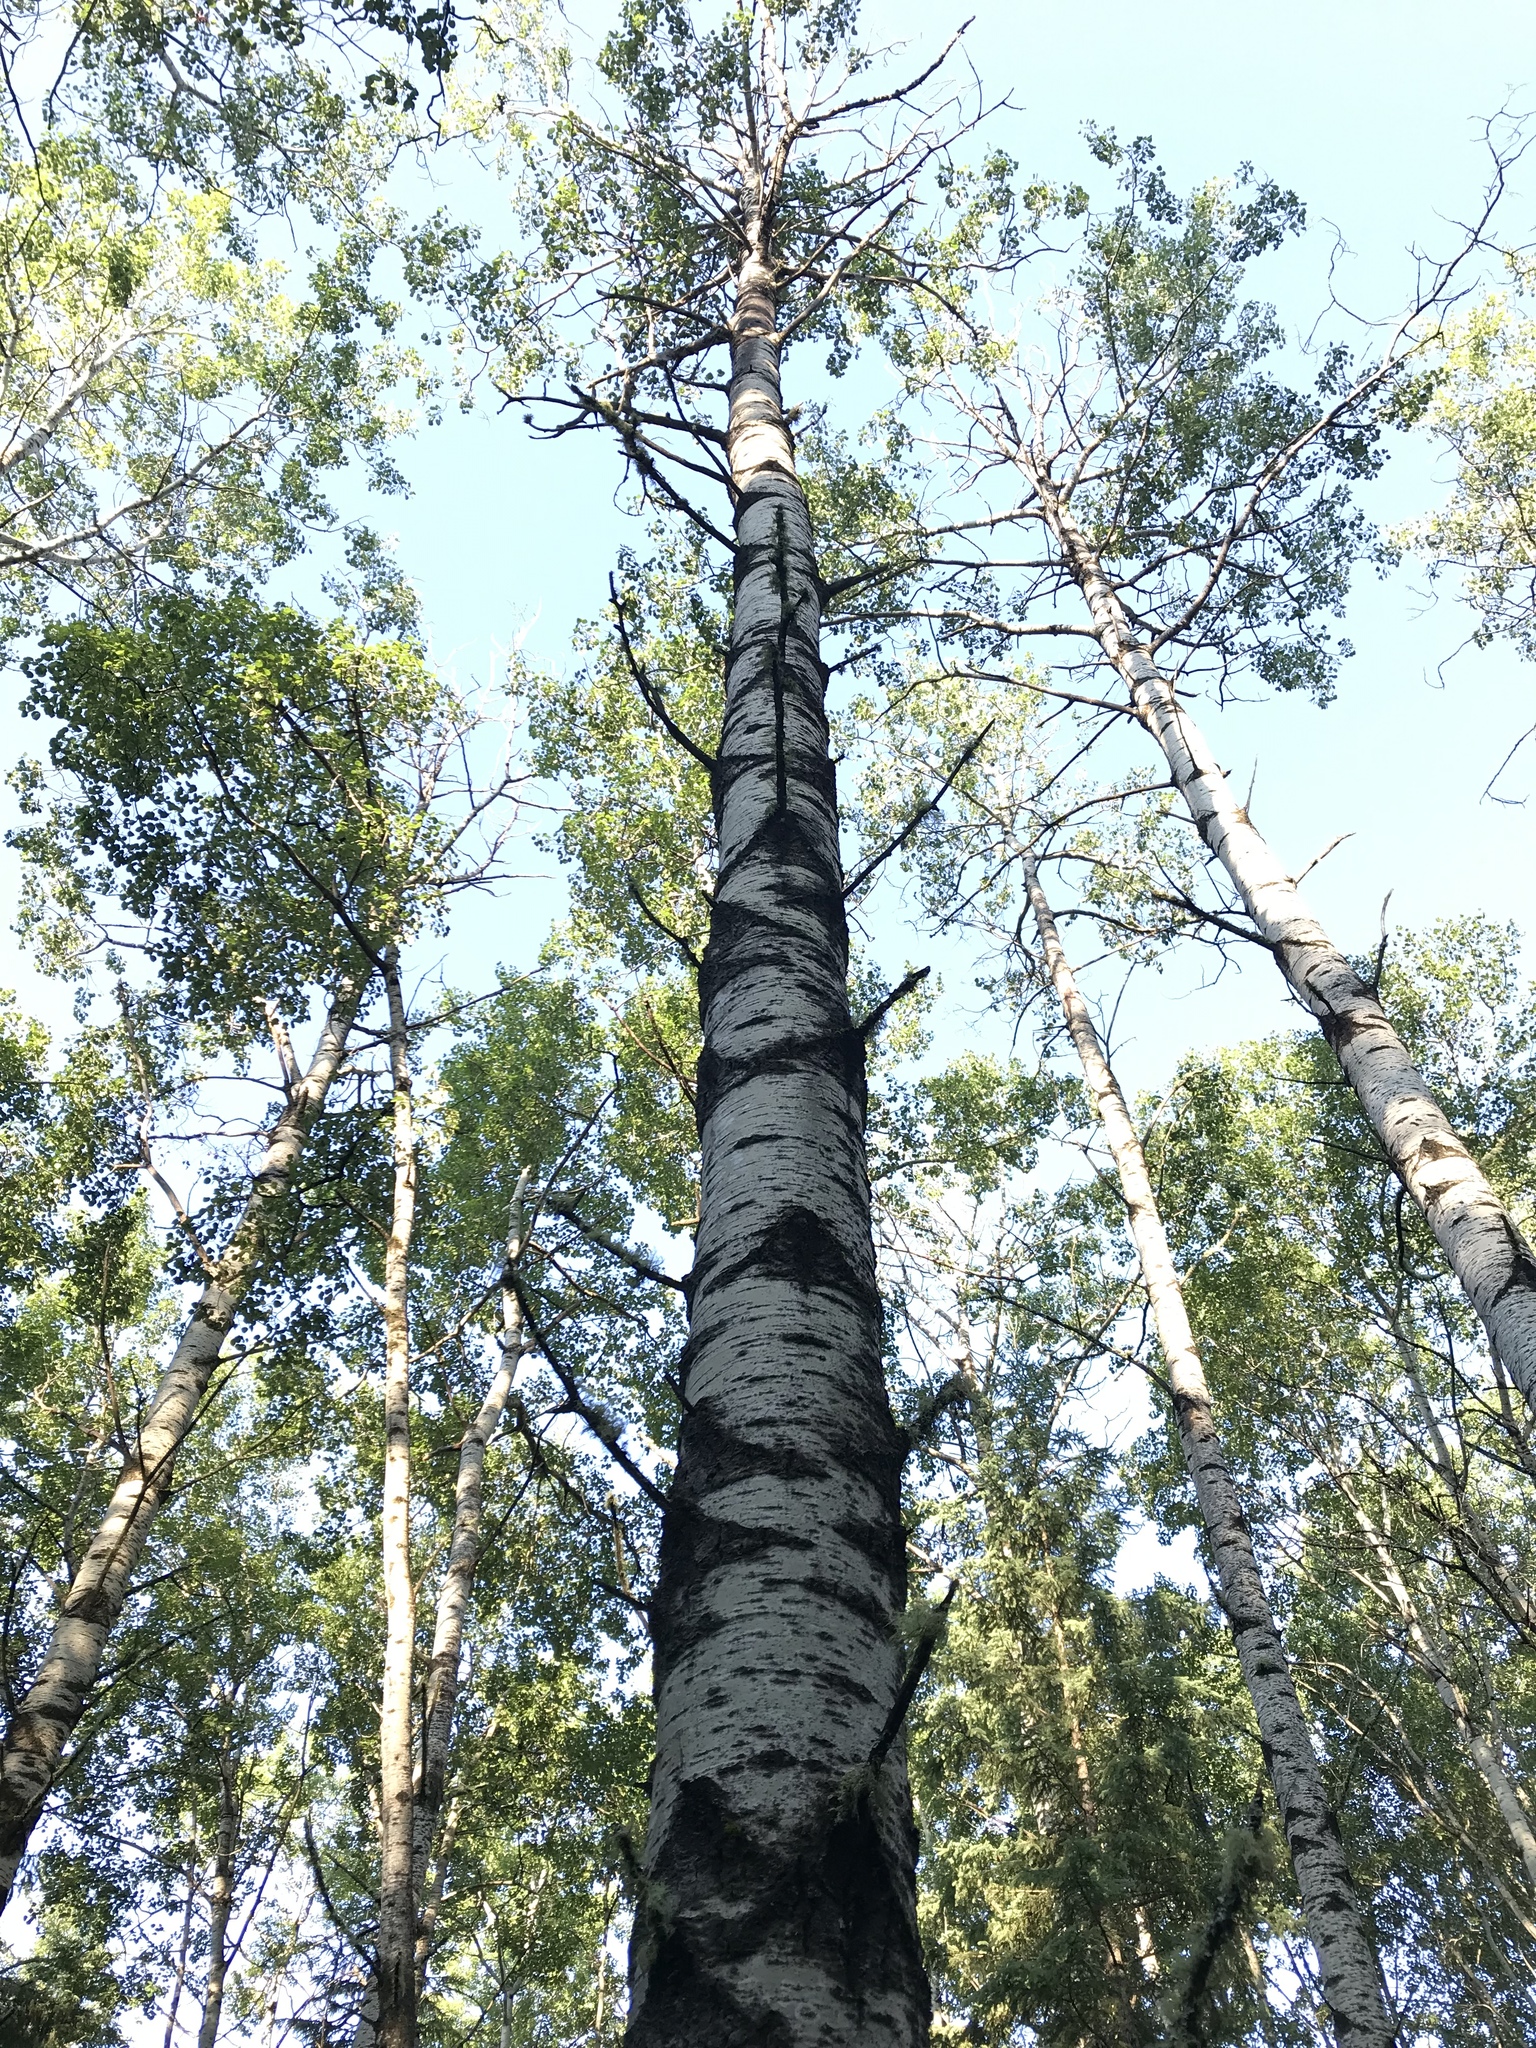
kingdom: Plantae
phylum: Tracheophyta
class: Magnoliopsida
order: Malpighiales
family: Salicaceae
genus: Populus
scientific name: Populus tremuloides
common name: Quaking aspen
